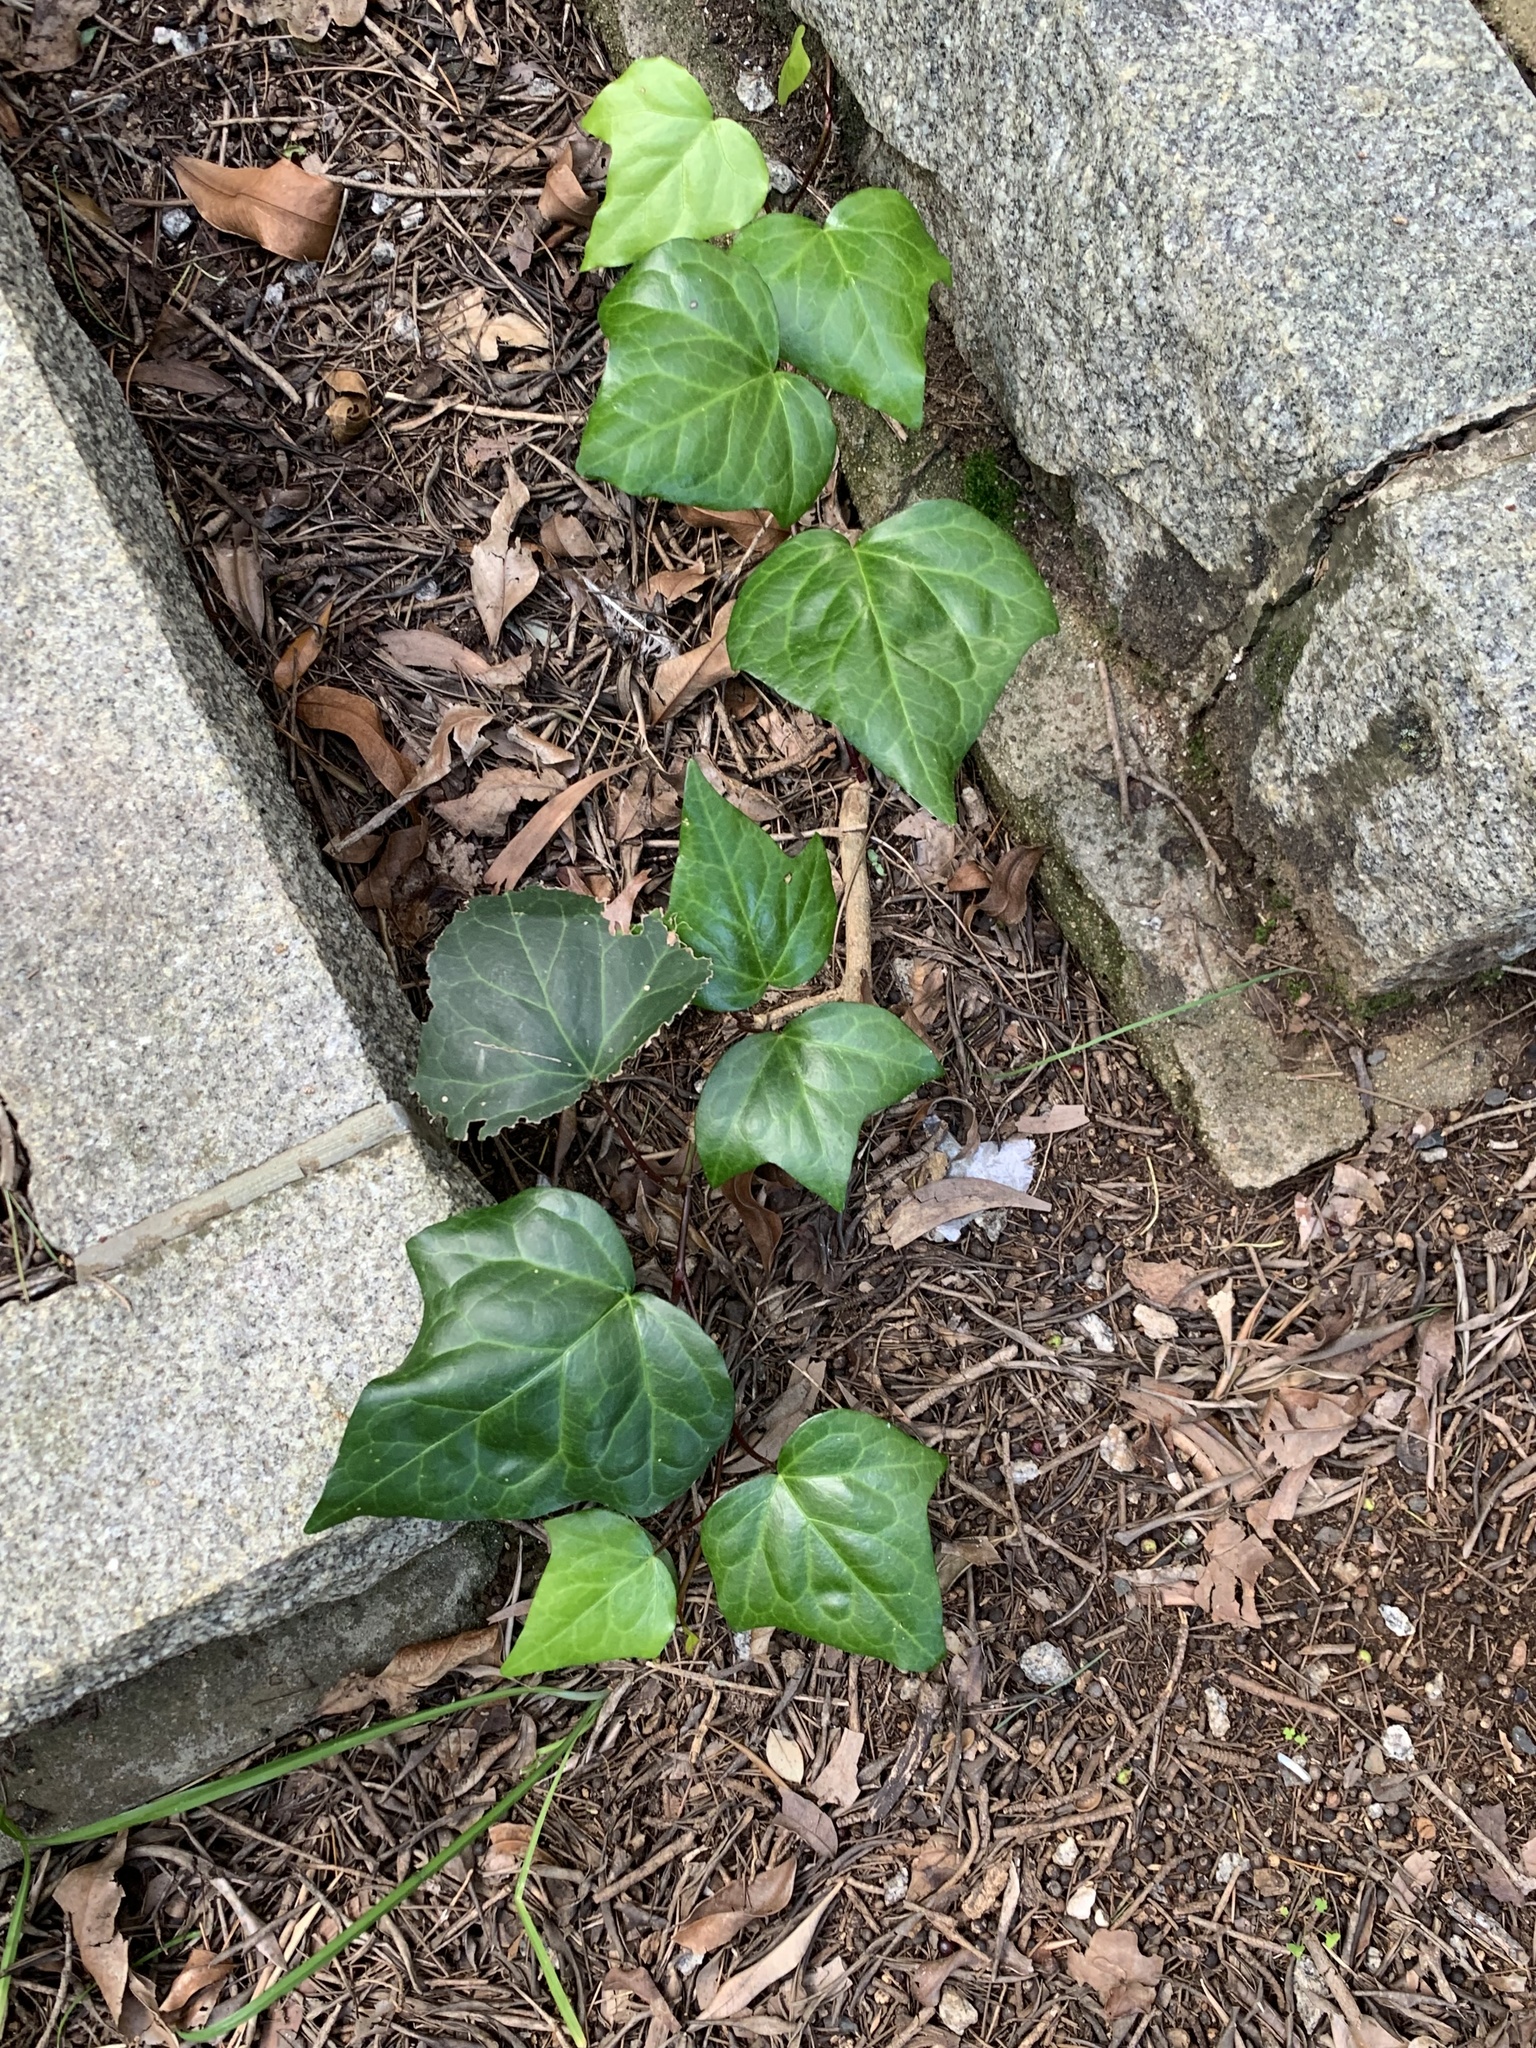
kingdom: Plantae
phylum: Tracheophyta
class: Magnoliopsida
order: Apiales
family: Araliaceae
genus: Hedera
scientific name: Hedera canariensis
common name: Madeira ivy
